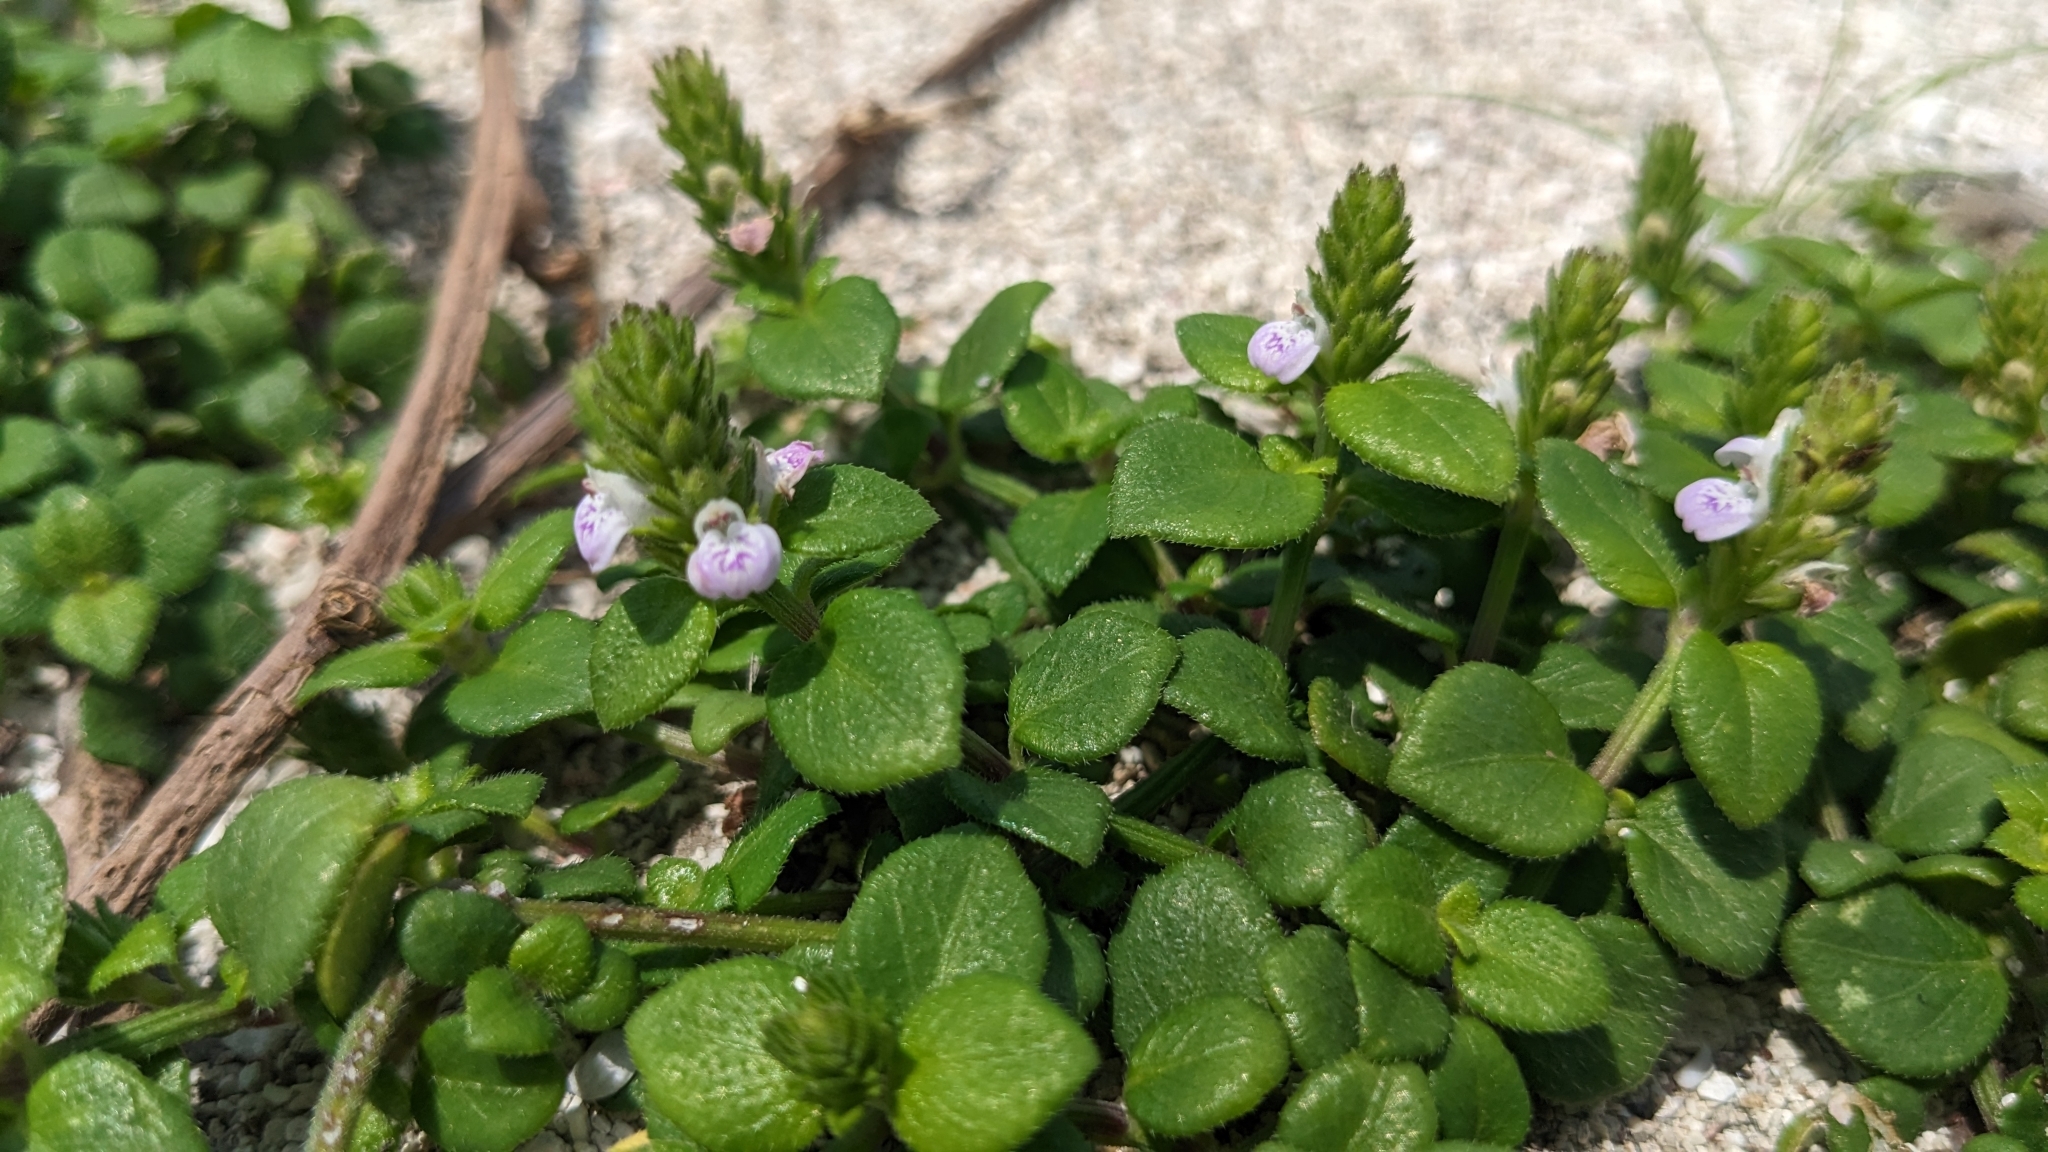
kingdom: Plantae
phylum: Tracheophyta
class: Magnoliopsida
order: Lamiales
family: Acanthaceae
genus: Rostellularia
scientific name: Rostellularia hayatae
